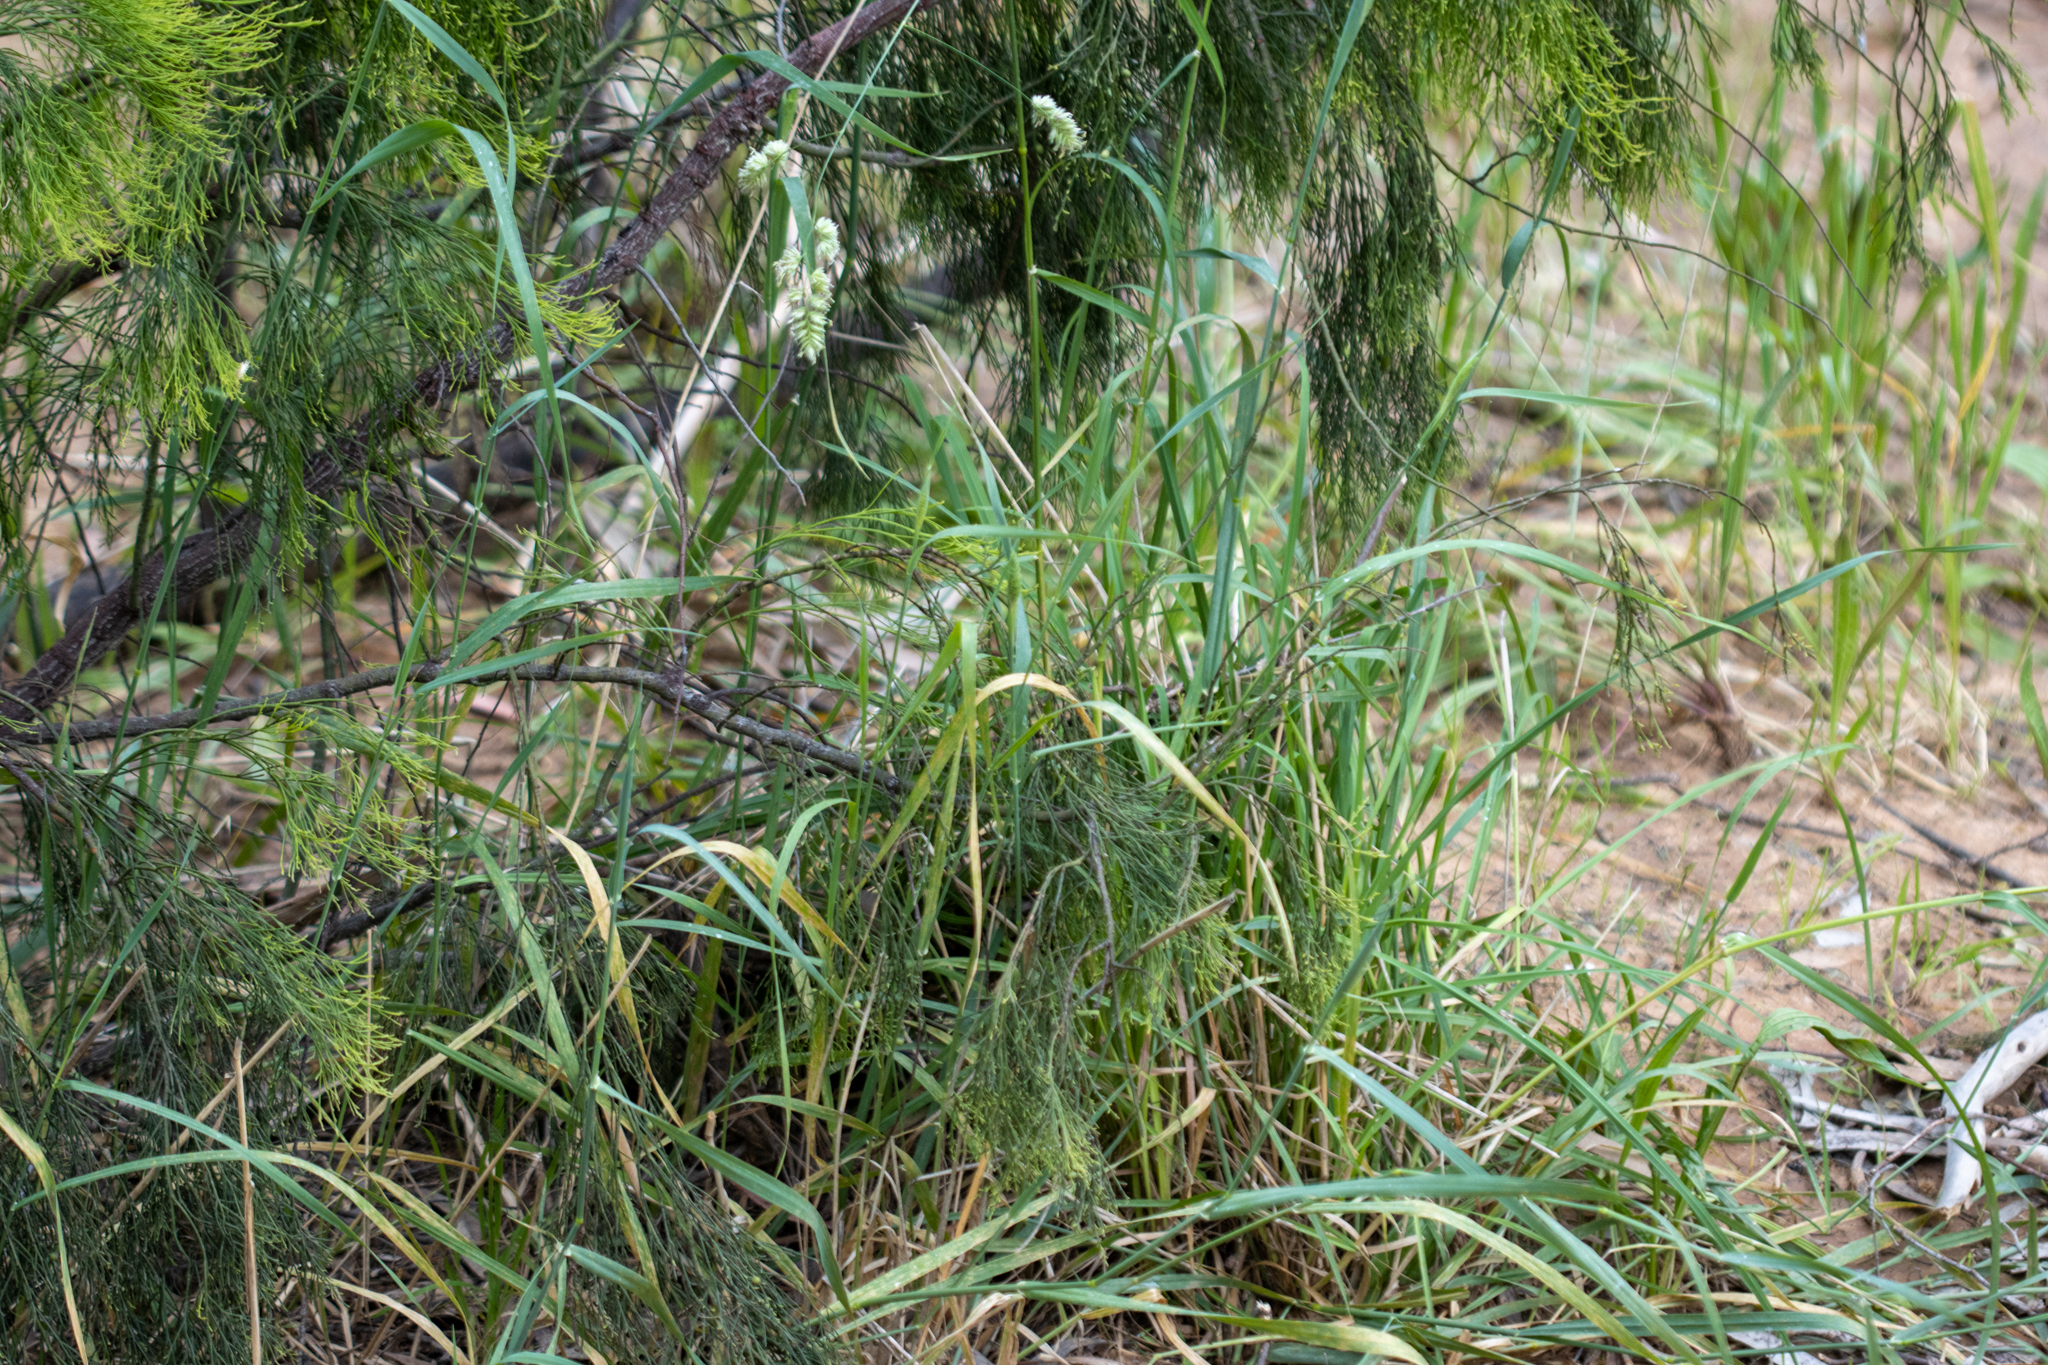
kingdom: Plantae
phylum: Tracheophyta
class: Liliopsida
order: Poales
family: Poaceae
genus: Dactylis
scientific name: Dactylis glomerata
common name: Orchardgrass
